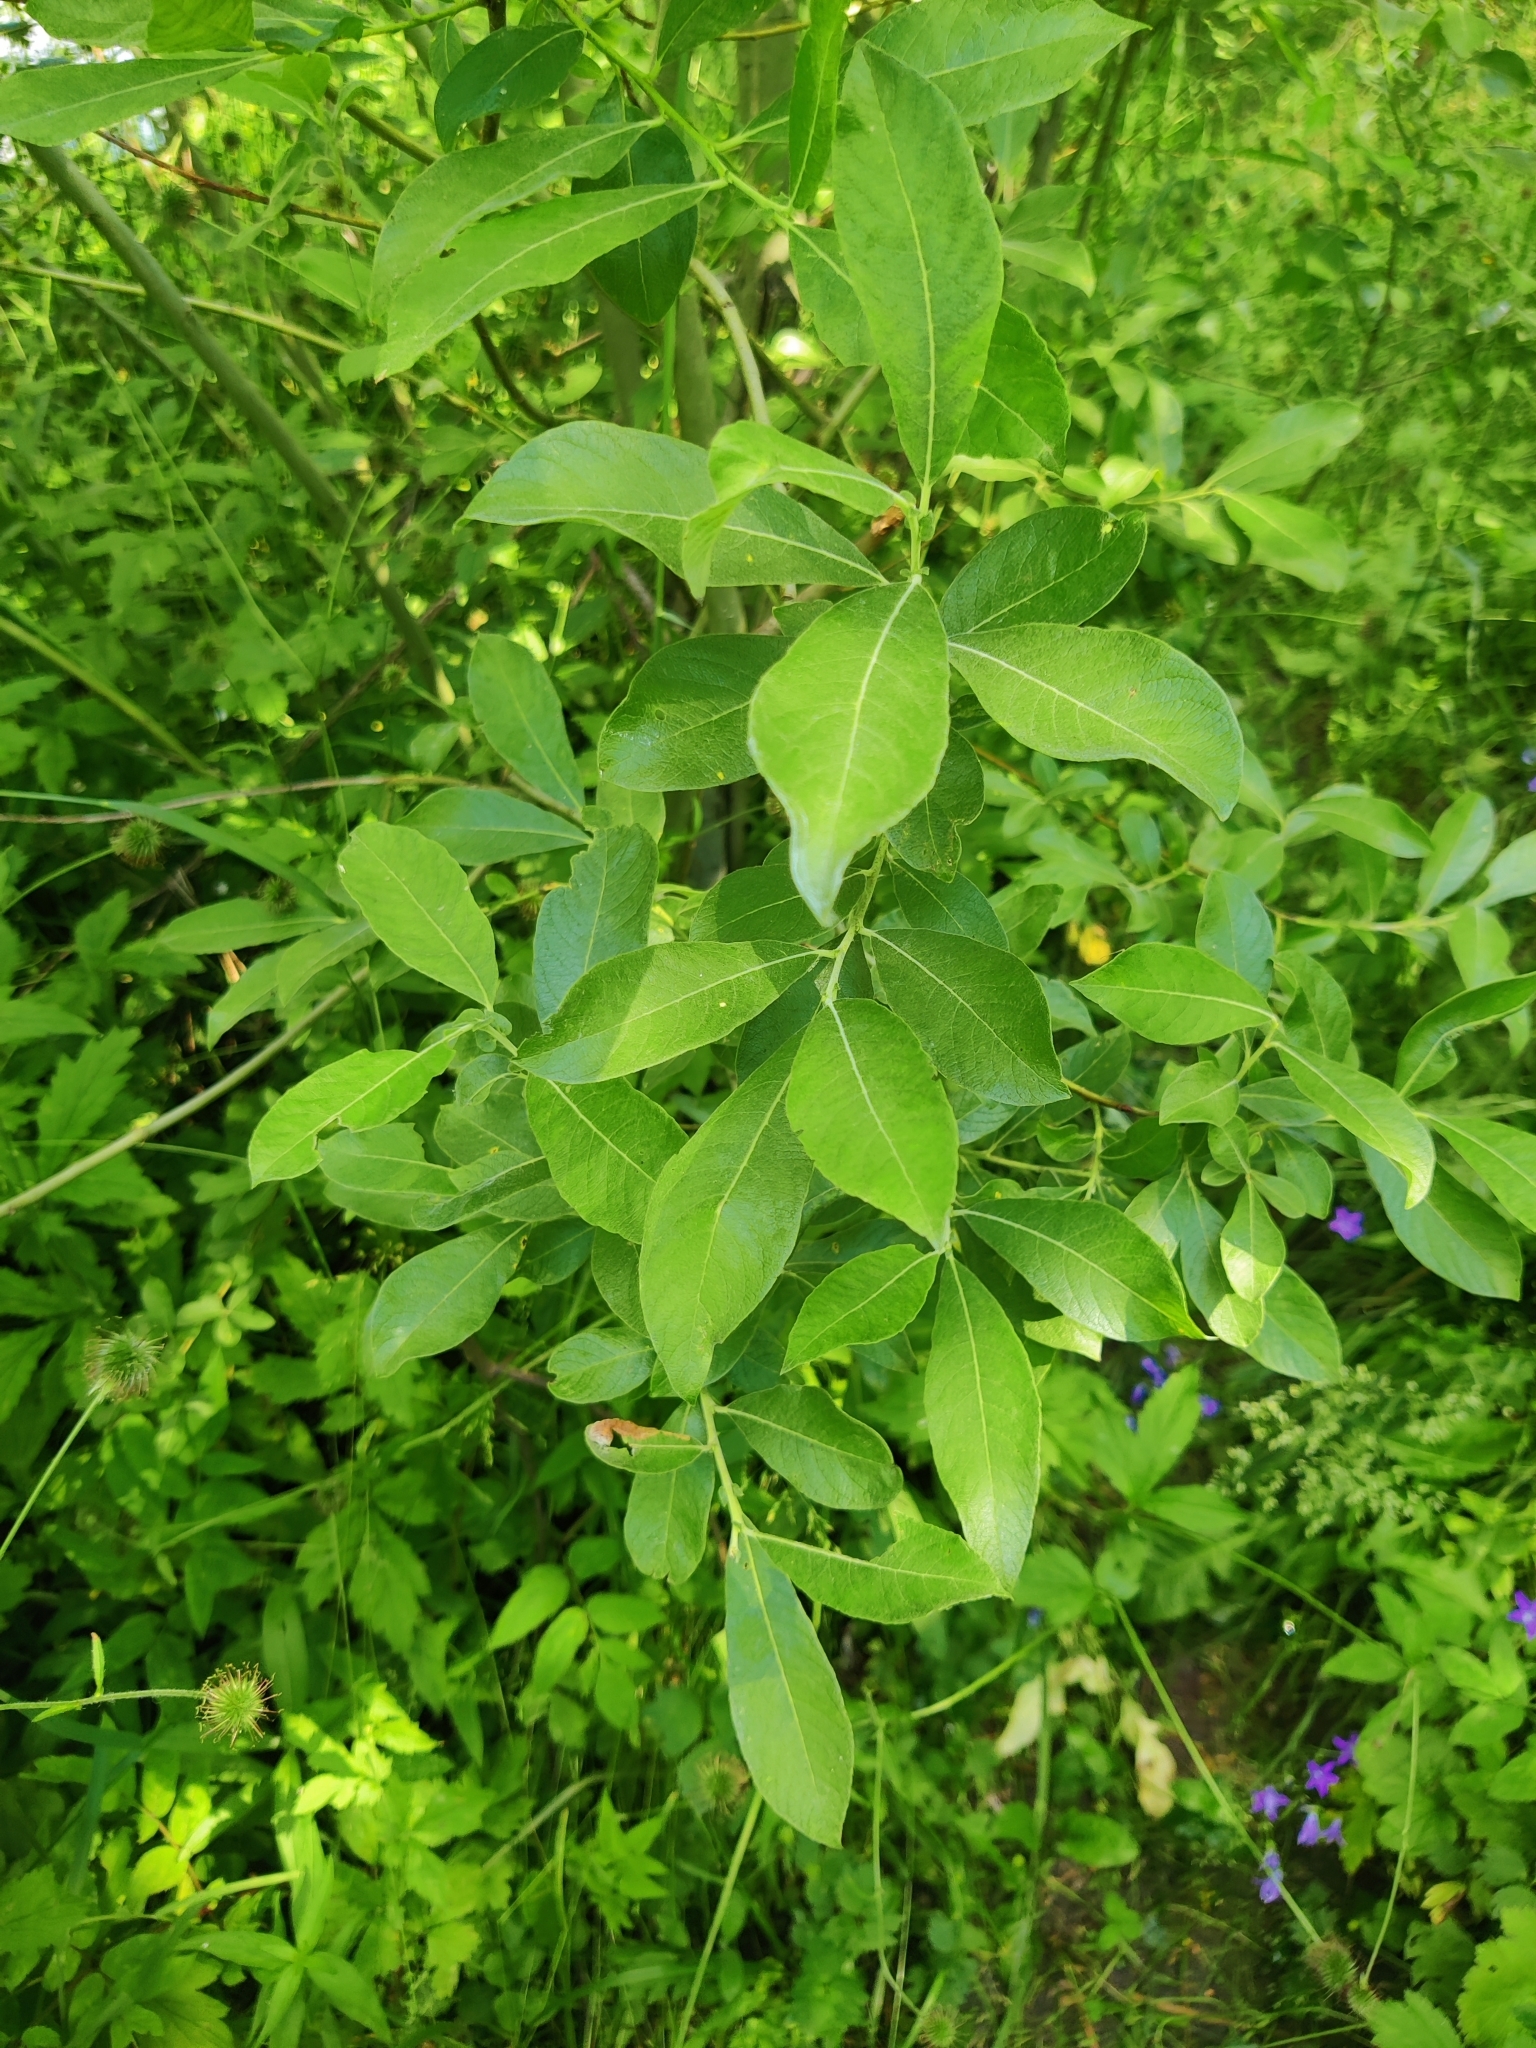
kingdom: Plantae
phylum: Tracheophyta
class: Magnoliopsida
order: Malpighiales
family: Salicaceae
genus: Salix
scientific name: Salix caprea
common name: Goat willow
